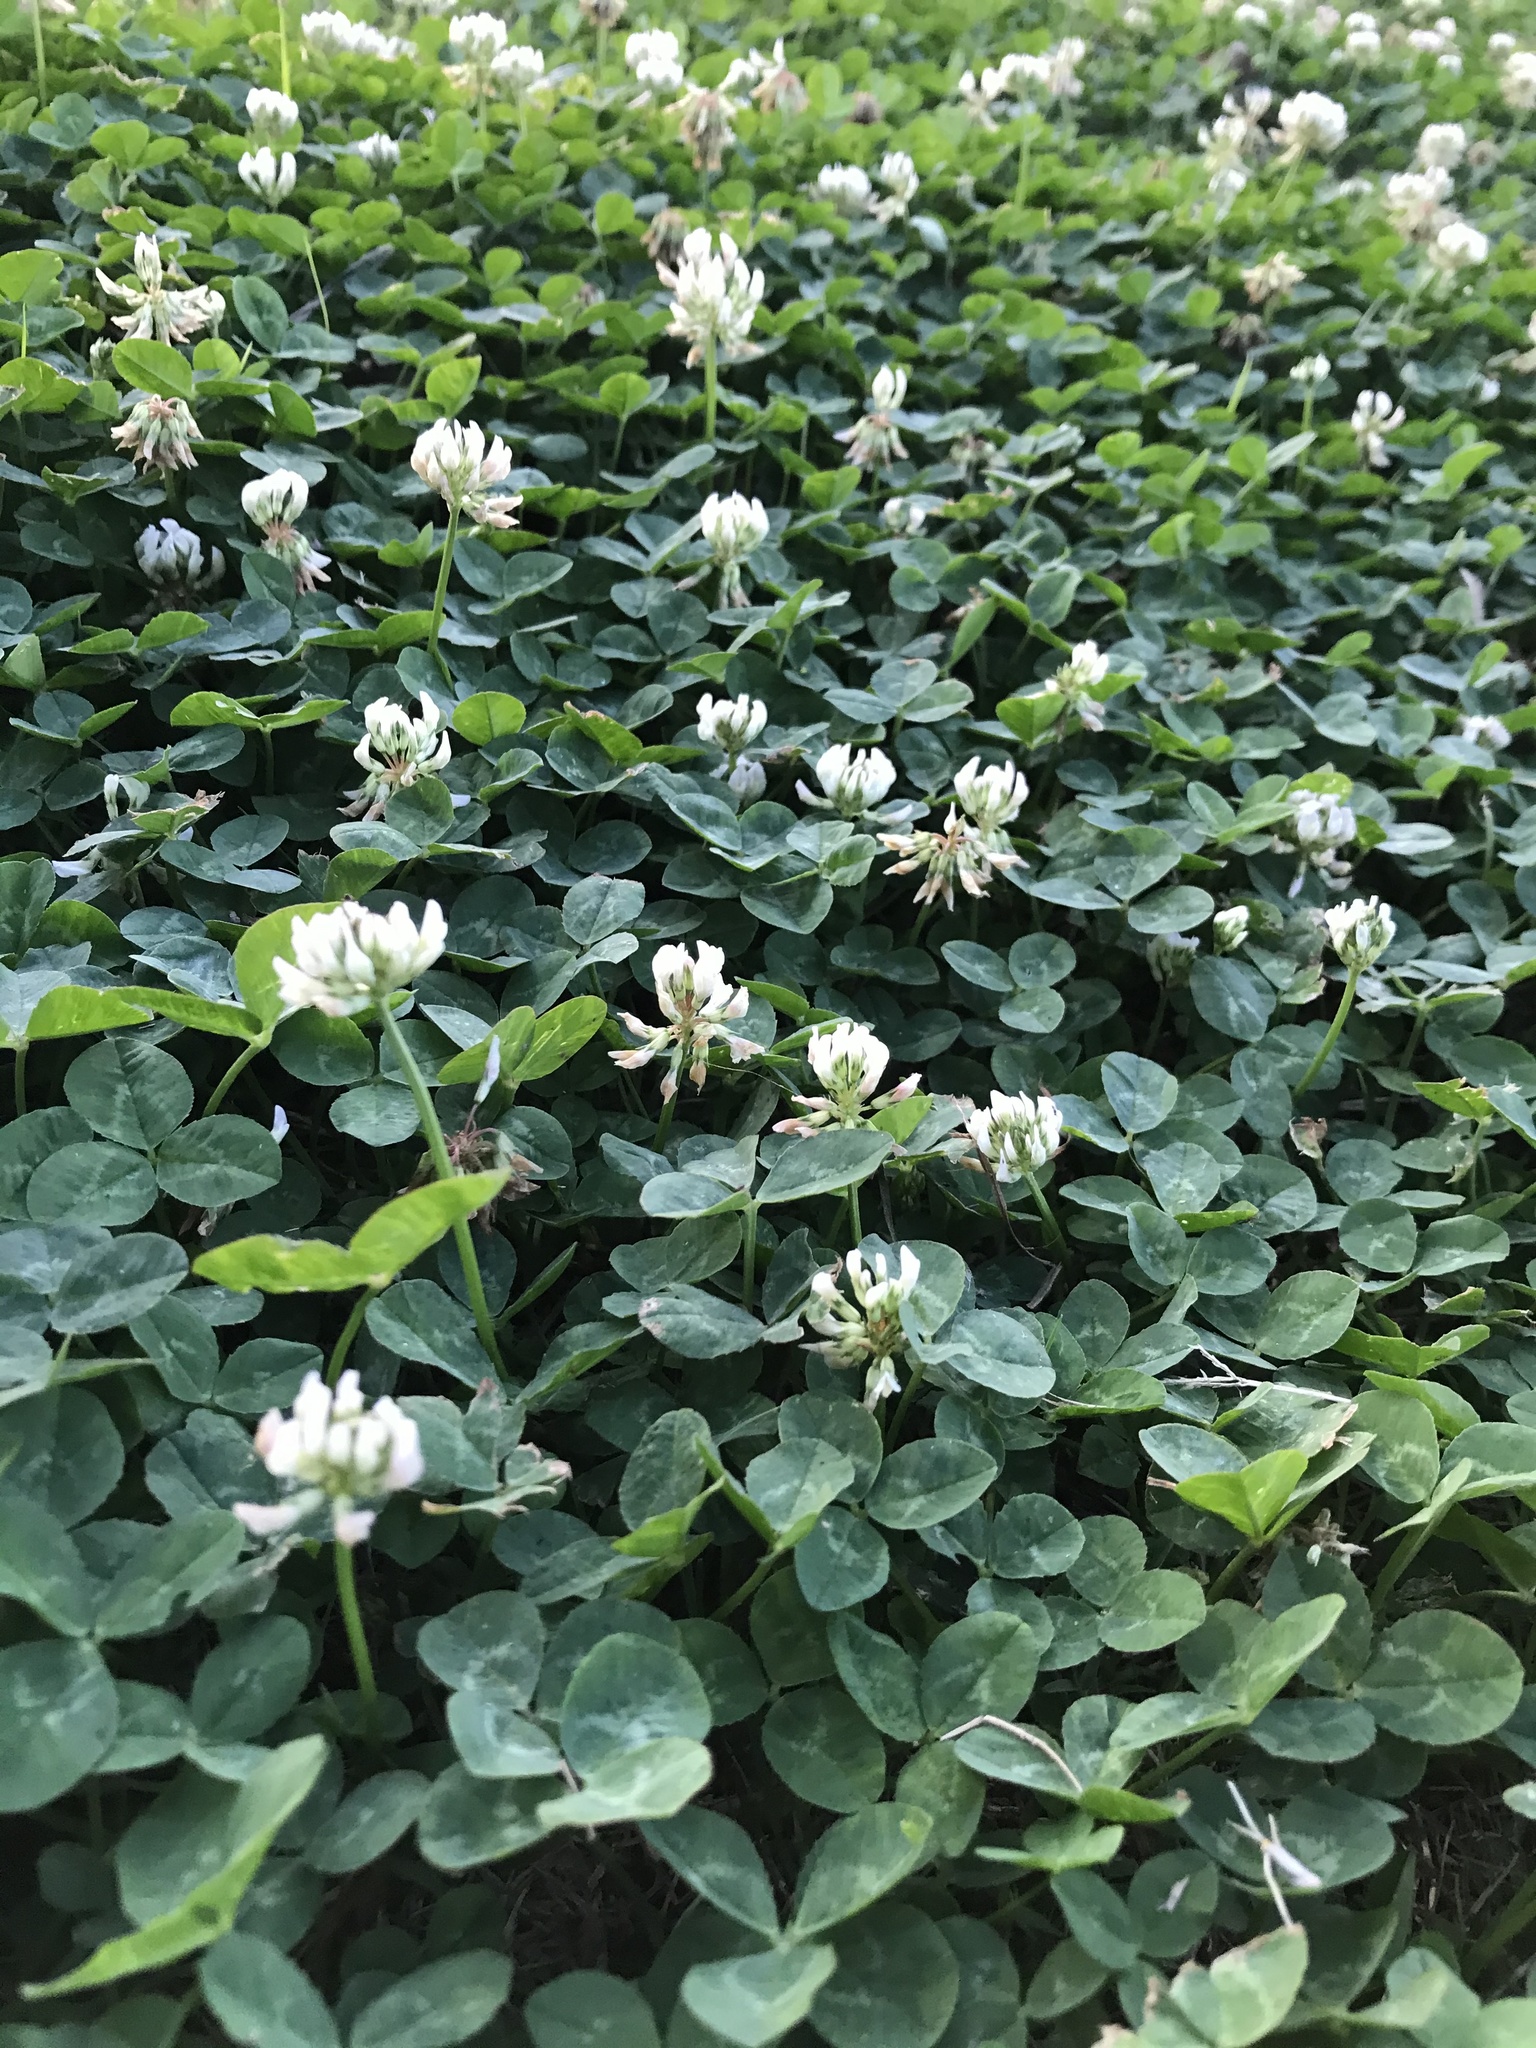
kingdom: Plantae
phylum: Tracheophyta
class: Magnoliopsida
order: Fabales
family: Fabaceae
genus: Trifolium
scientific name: Trifolium repens
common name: White clover
